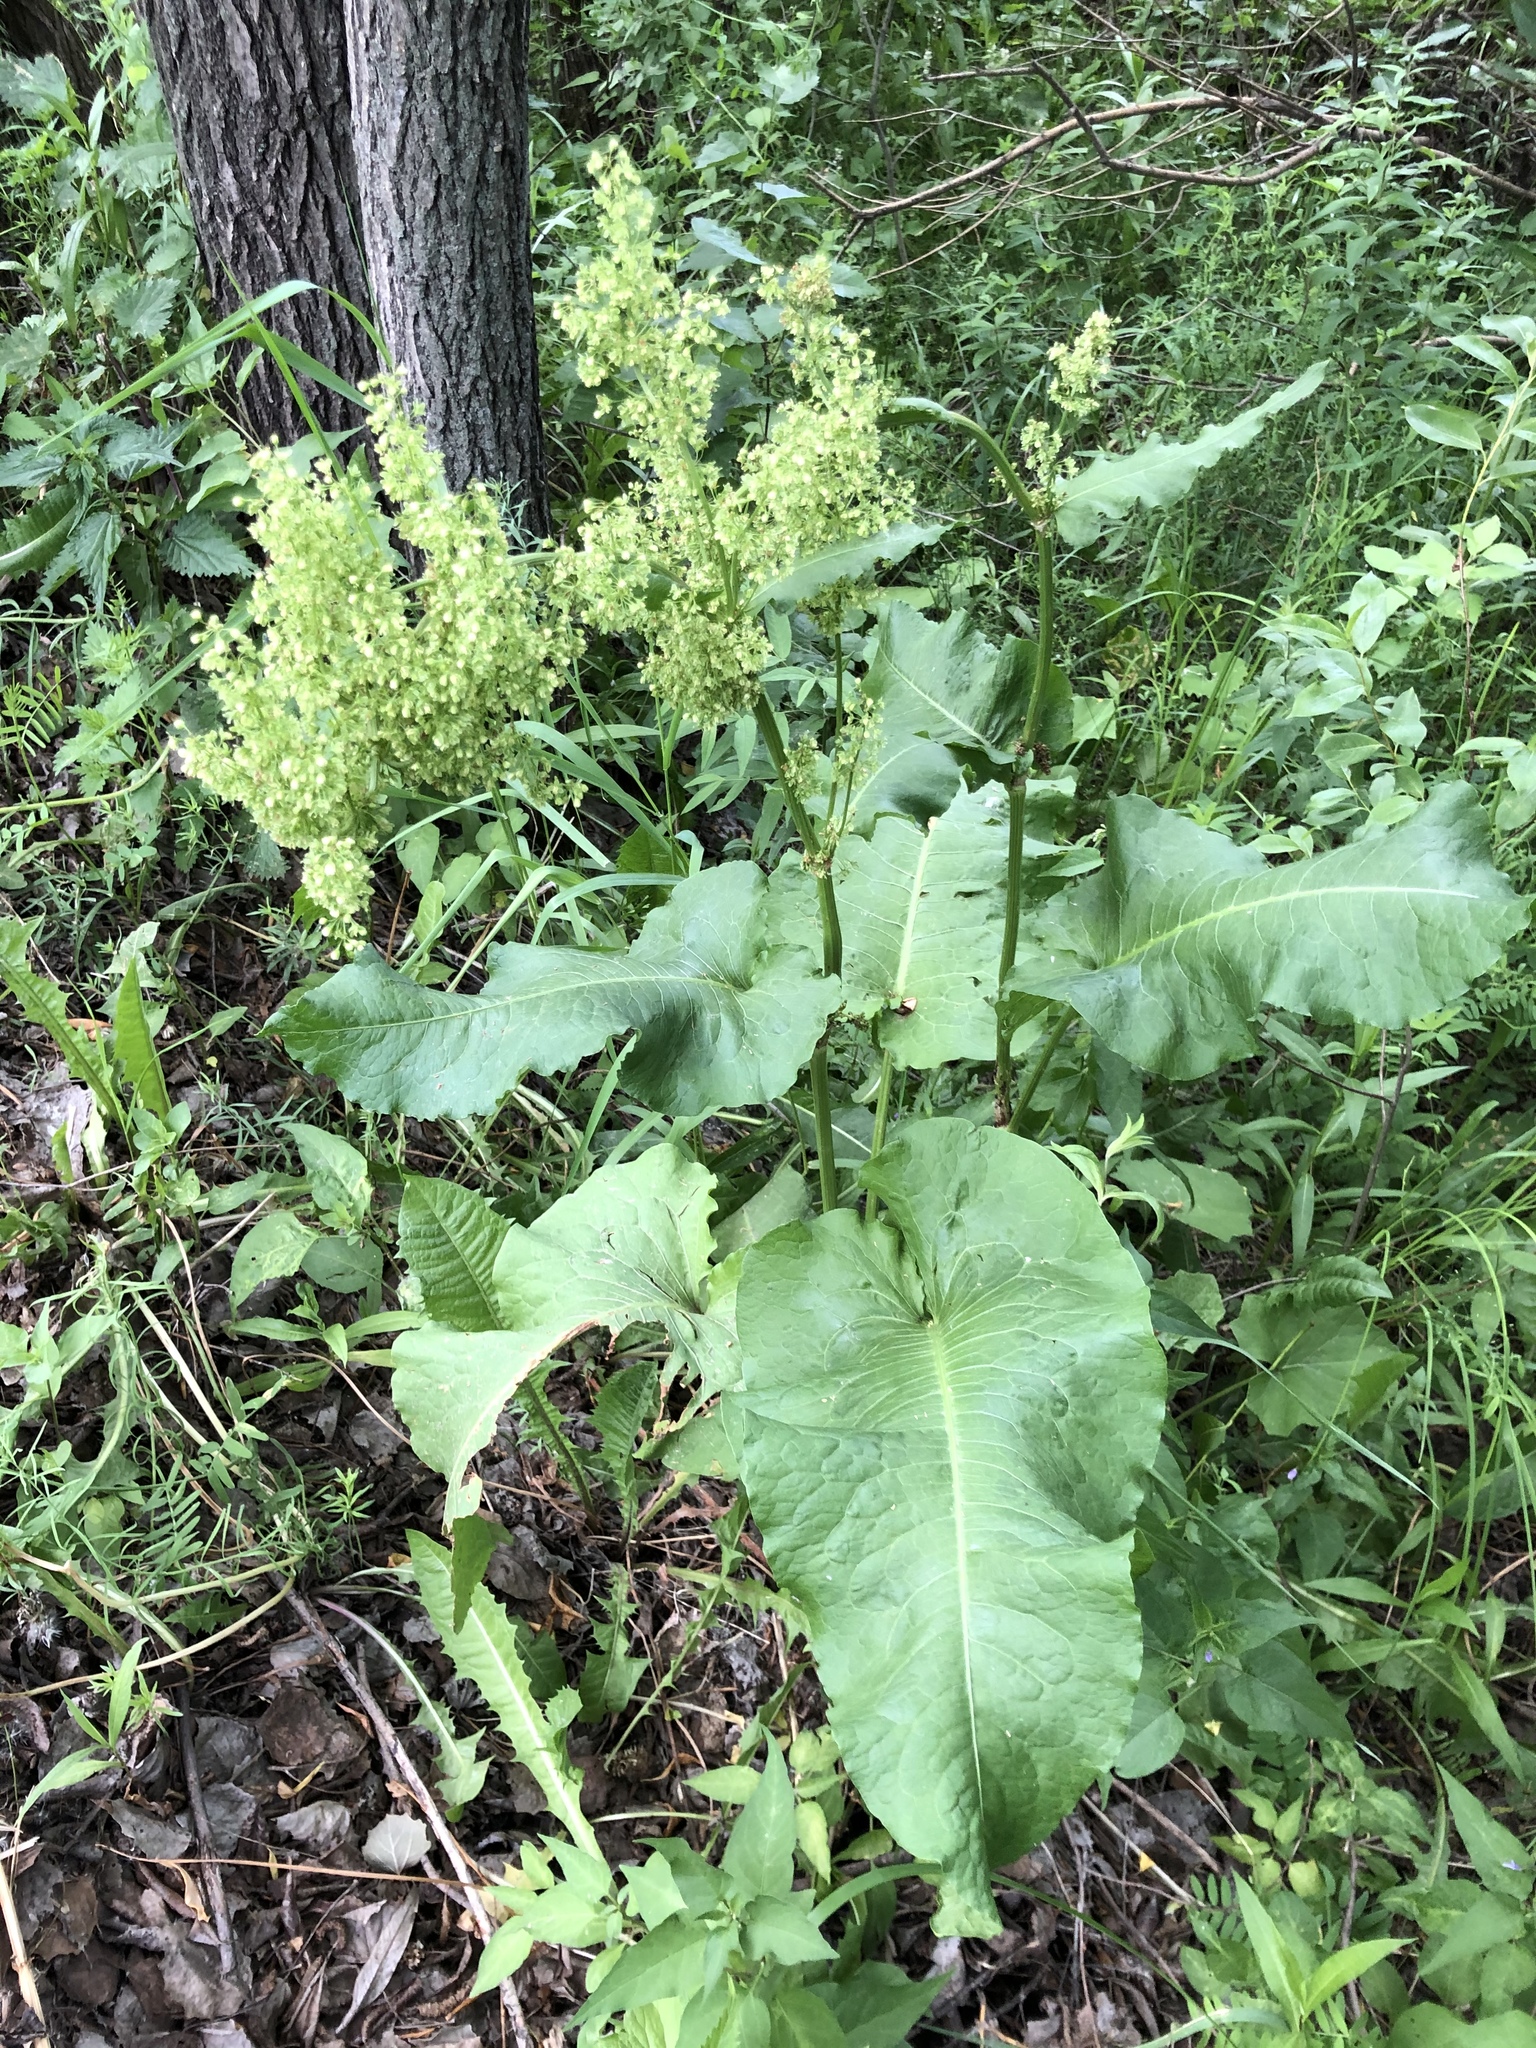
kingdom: Plantae
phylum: Tracheophyta
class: Magnoliopsida
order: Caryophyllales
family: Polygonaceae
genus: Rumex
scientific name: Rumex confertus
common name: Russian dock
